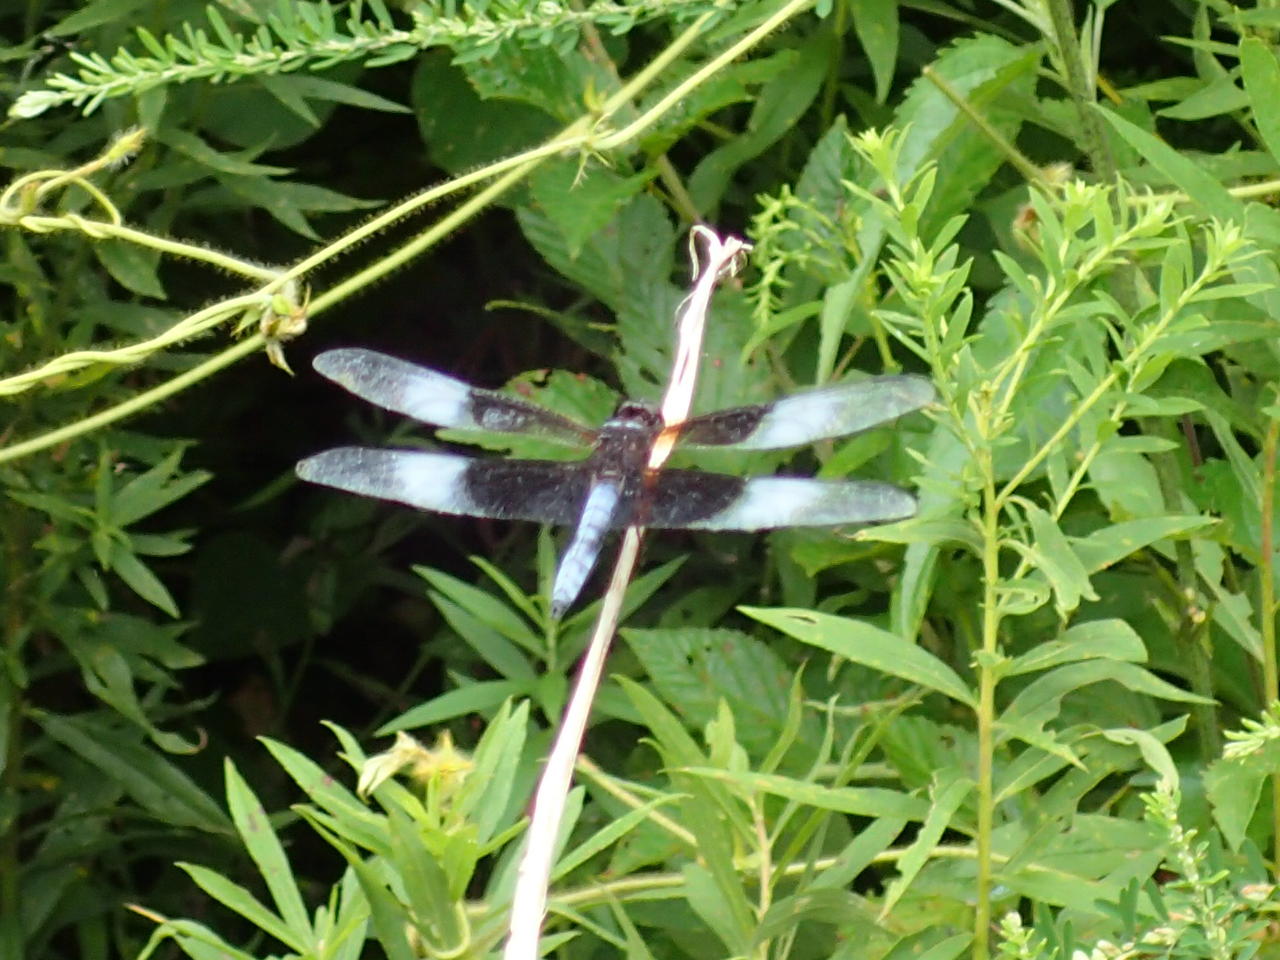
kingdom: Animalia
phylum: Arthropoda
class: Insecta
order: Odonata
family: Libellulidae
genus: Libellula
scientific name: Libellula luctuosa
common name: Widow skimmer
